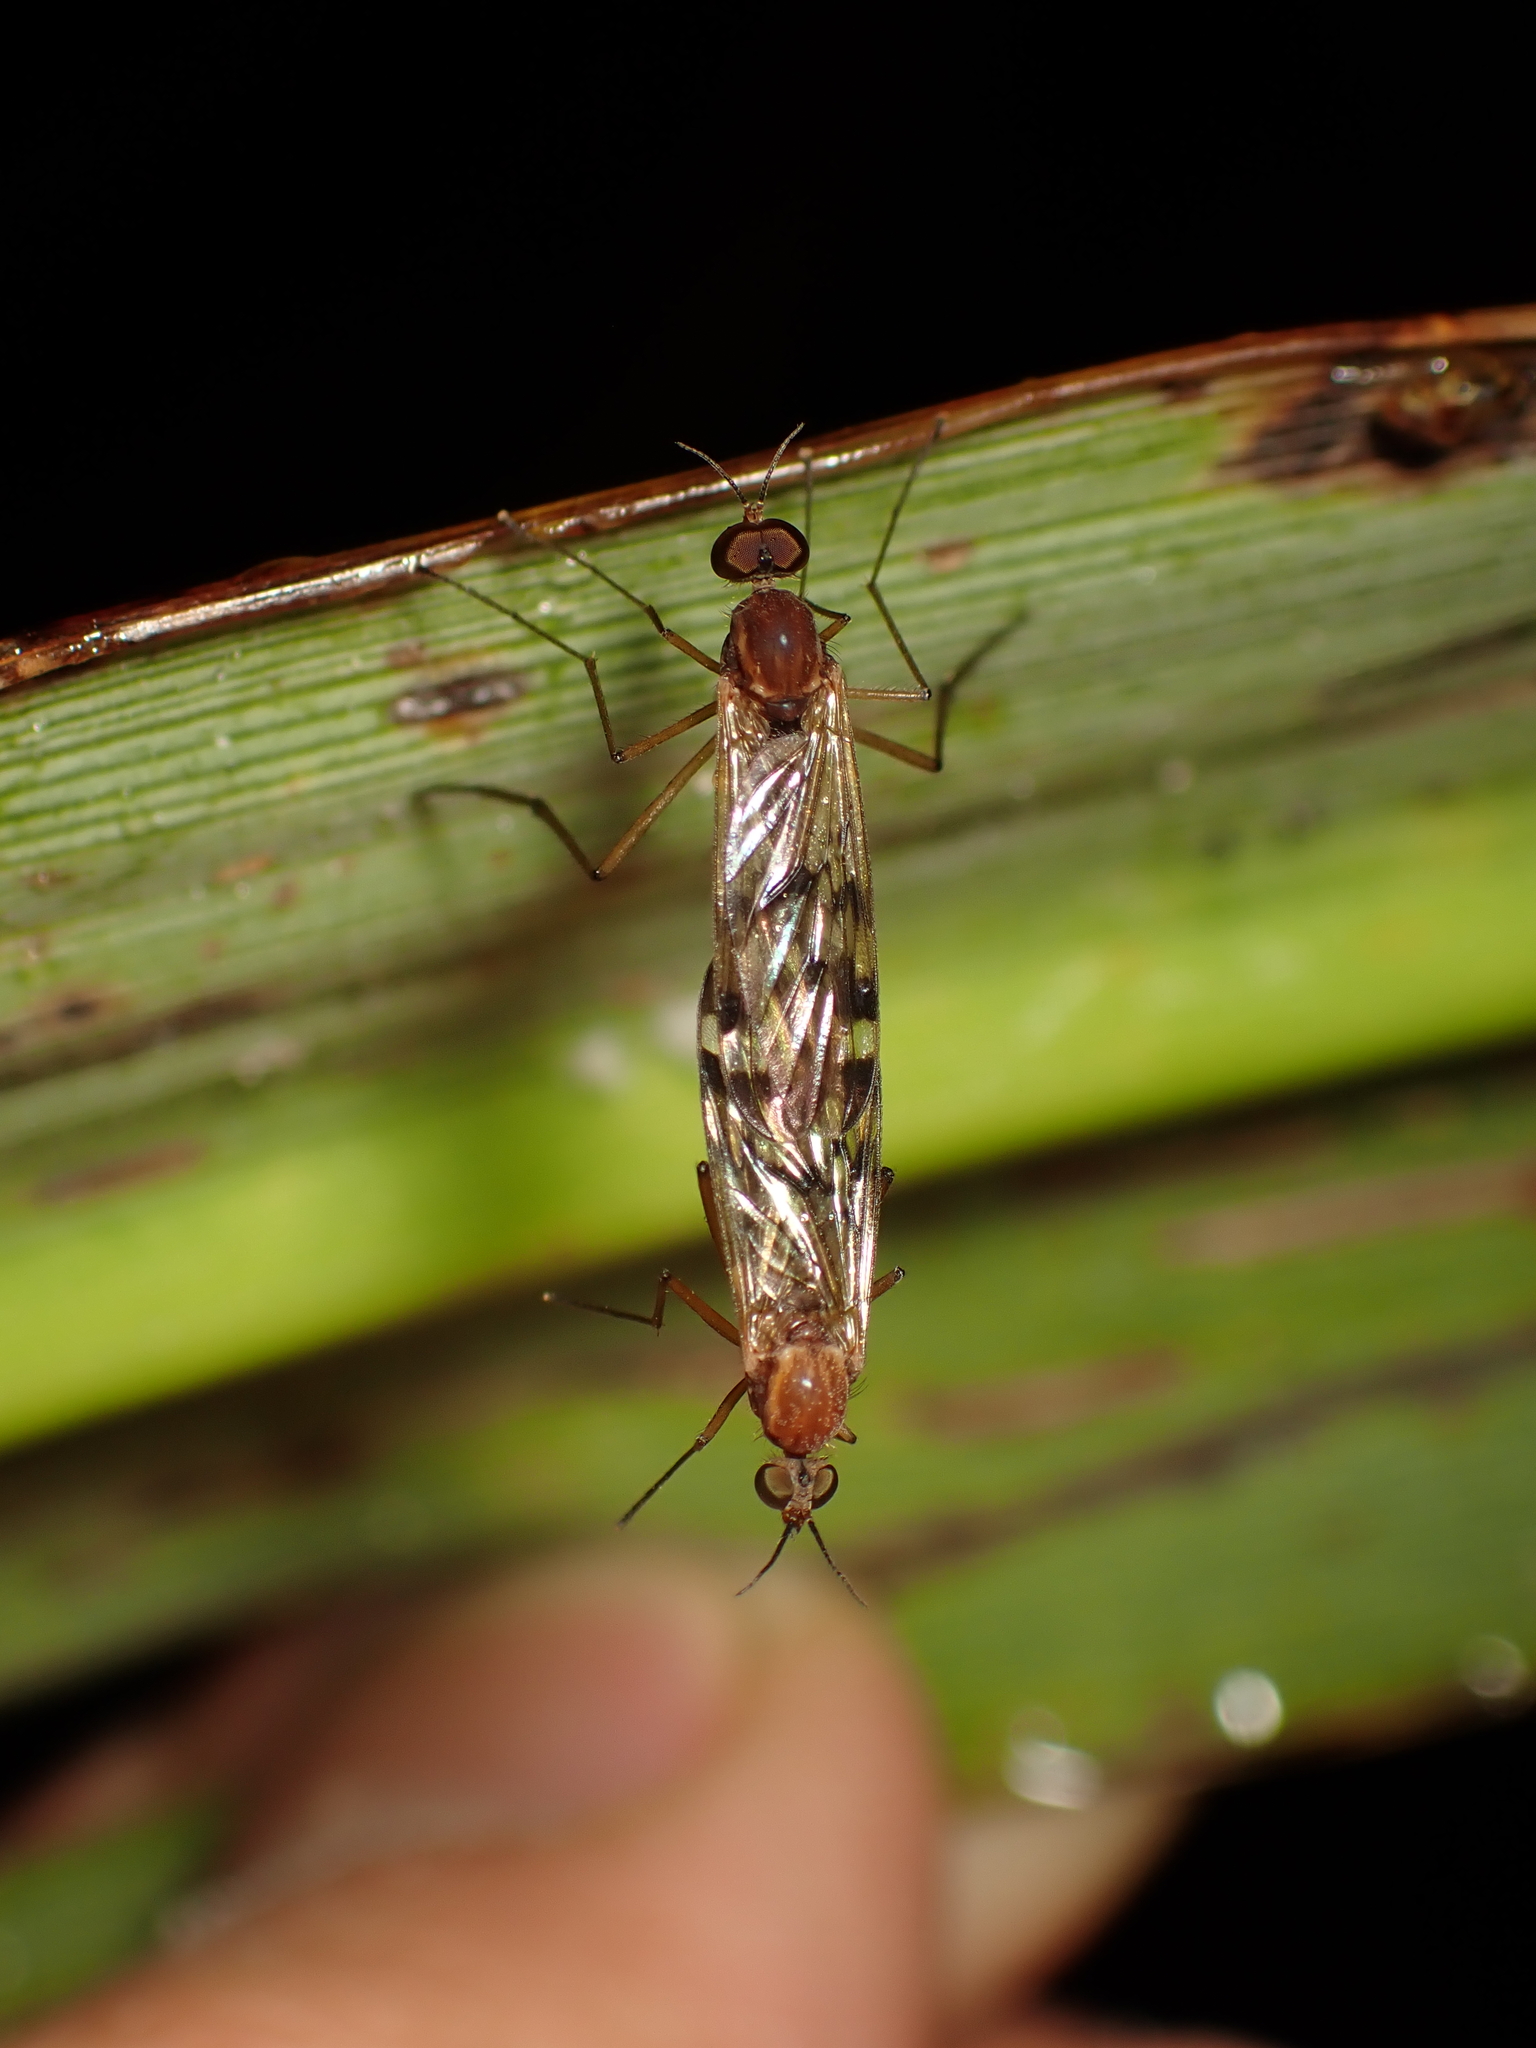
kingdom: Animalia
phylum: Arthropoda
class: Insecta
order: Diptera
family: Anisopodidae
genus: Sylvicola
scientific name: Sylvicola undulatus
